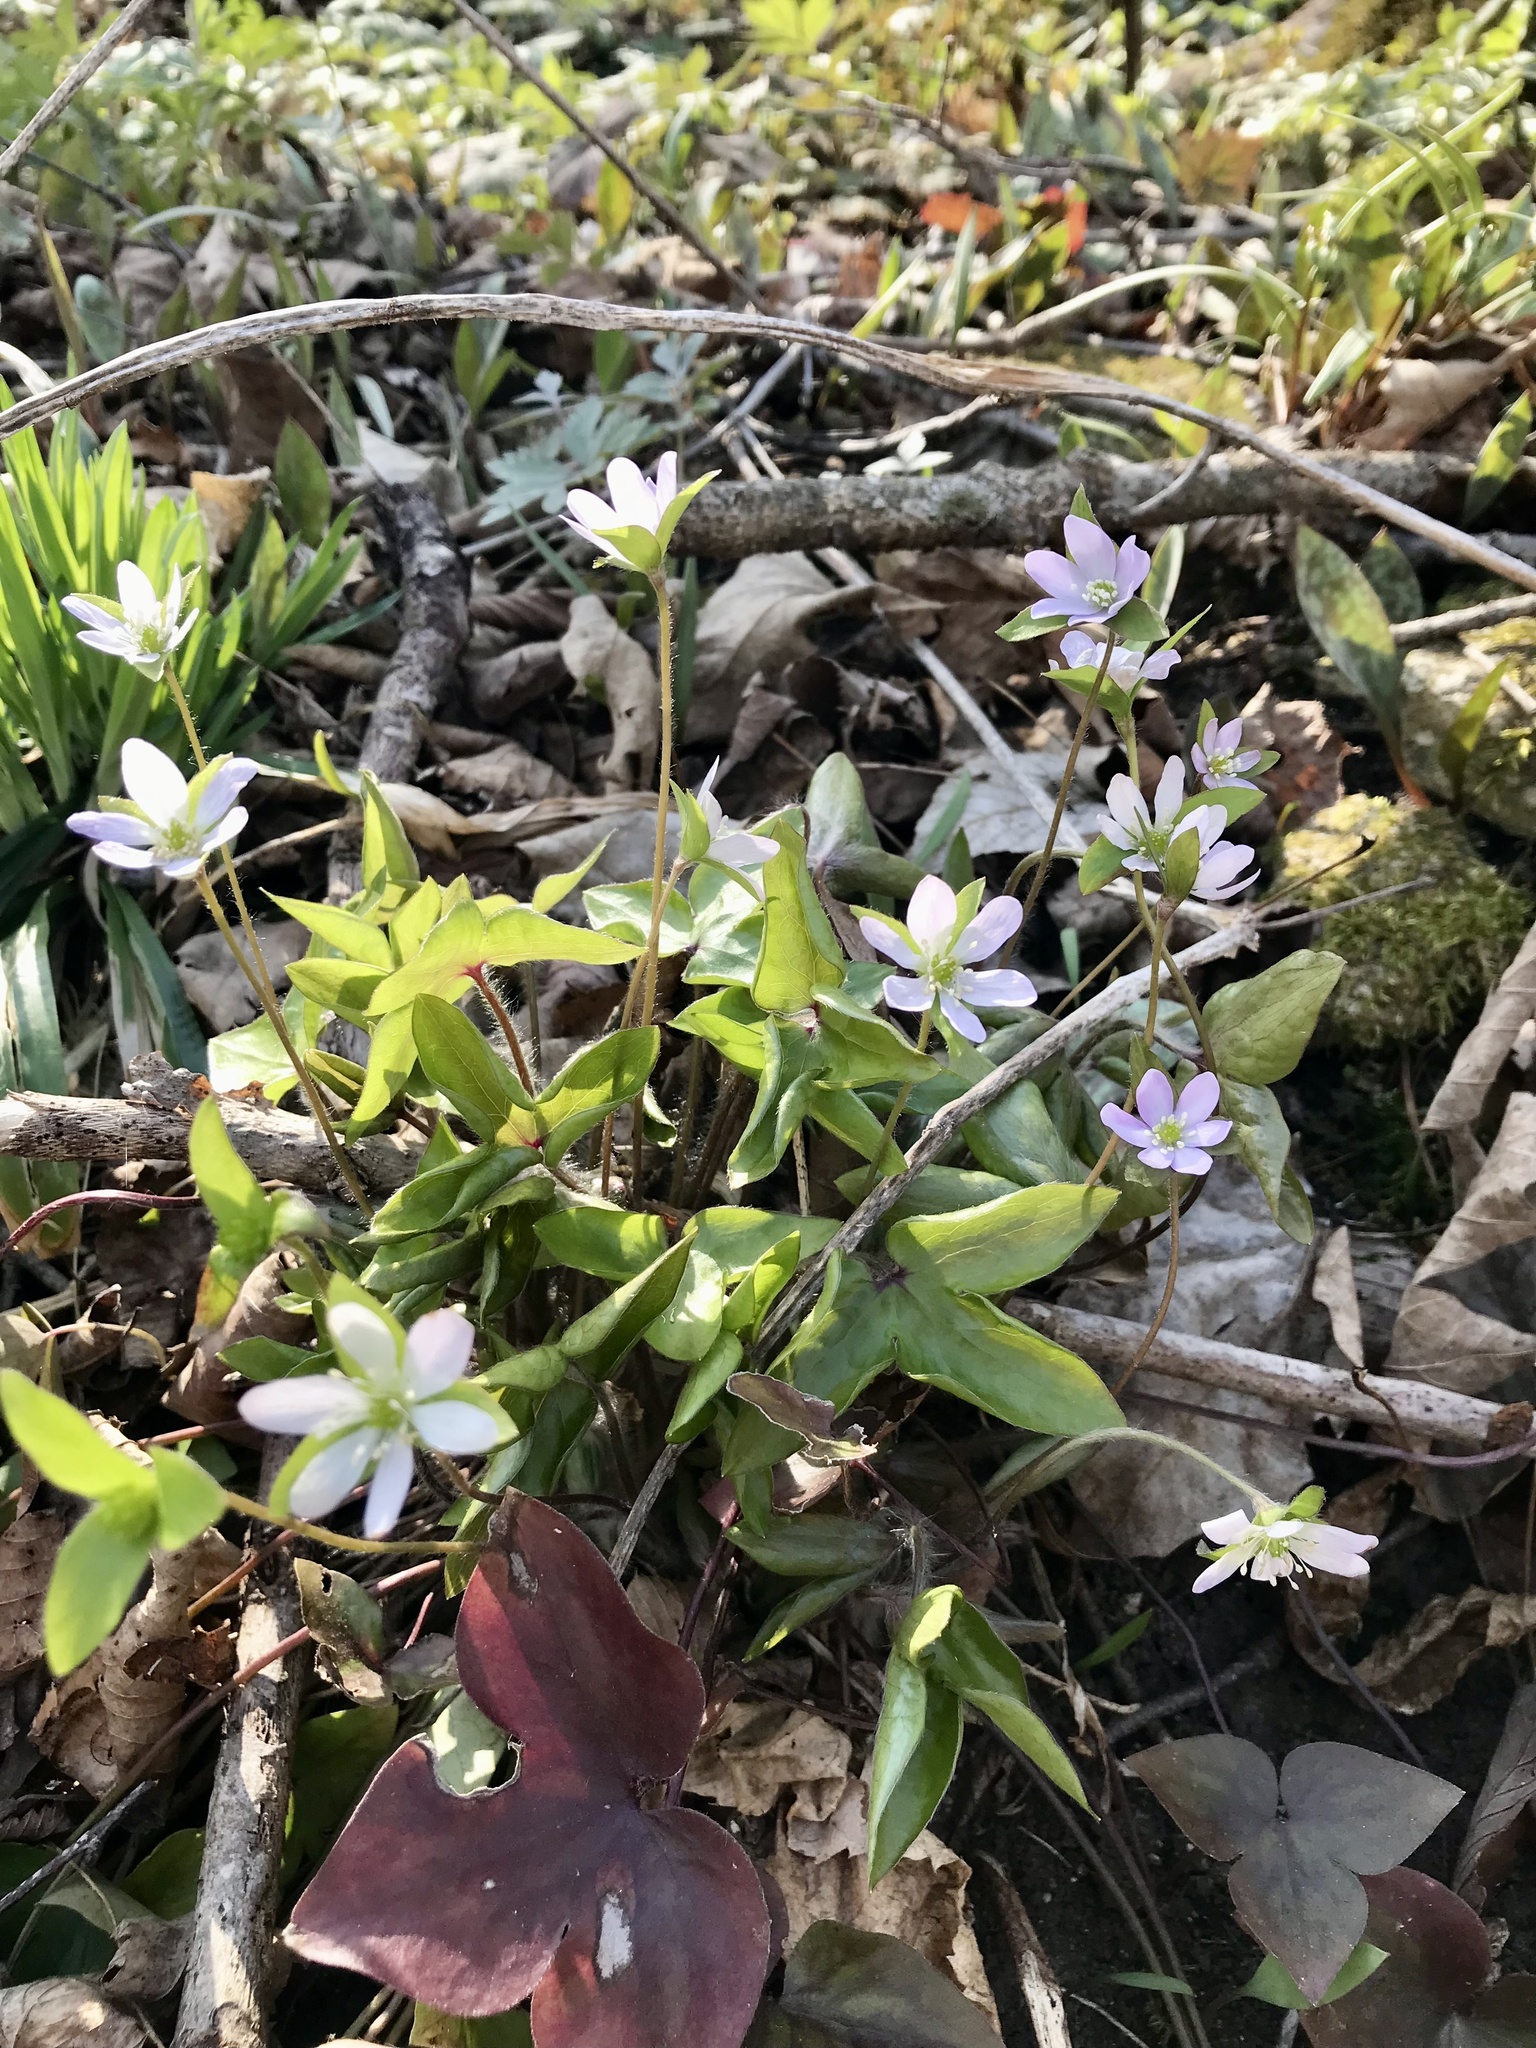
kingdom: Plantae
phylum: Tracheophyta
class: Magnoliopsida
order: Ranunculales
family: Ranunculaceae
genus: Hepatica
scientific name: Hepatica acutiloba
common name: Sharp-lobed hepatica
